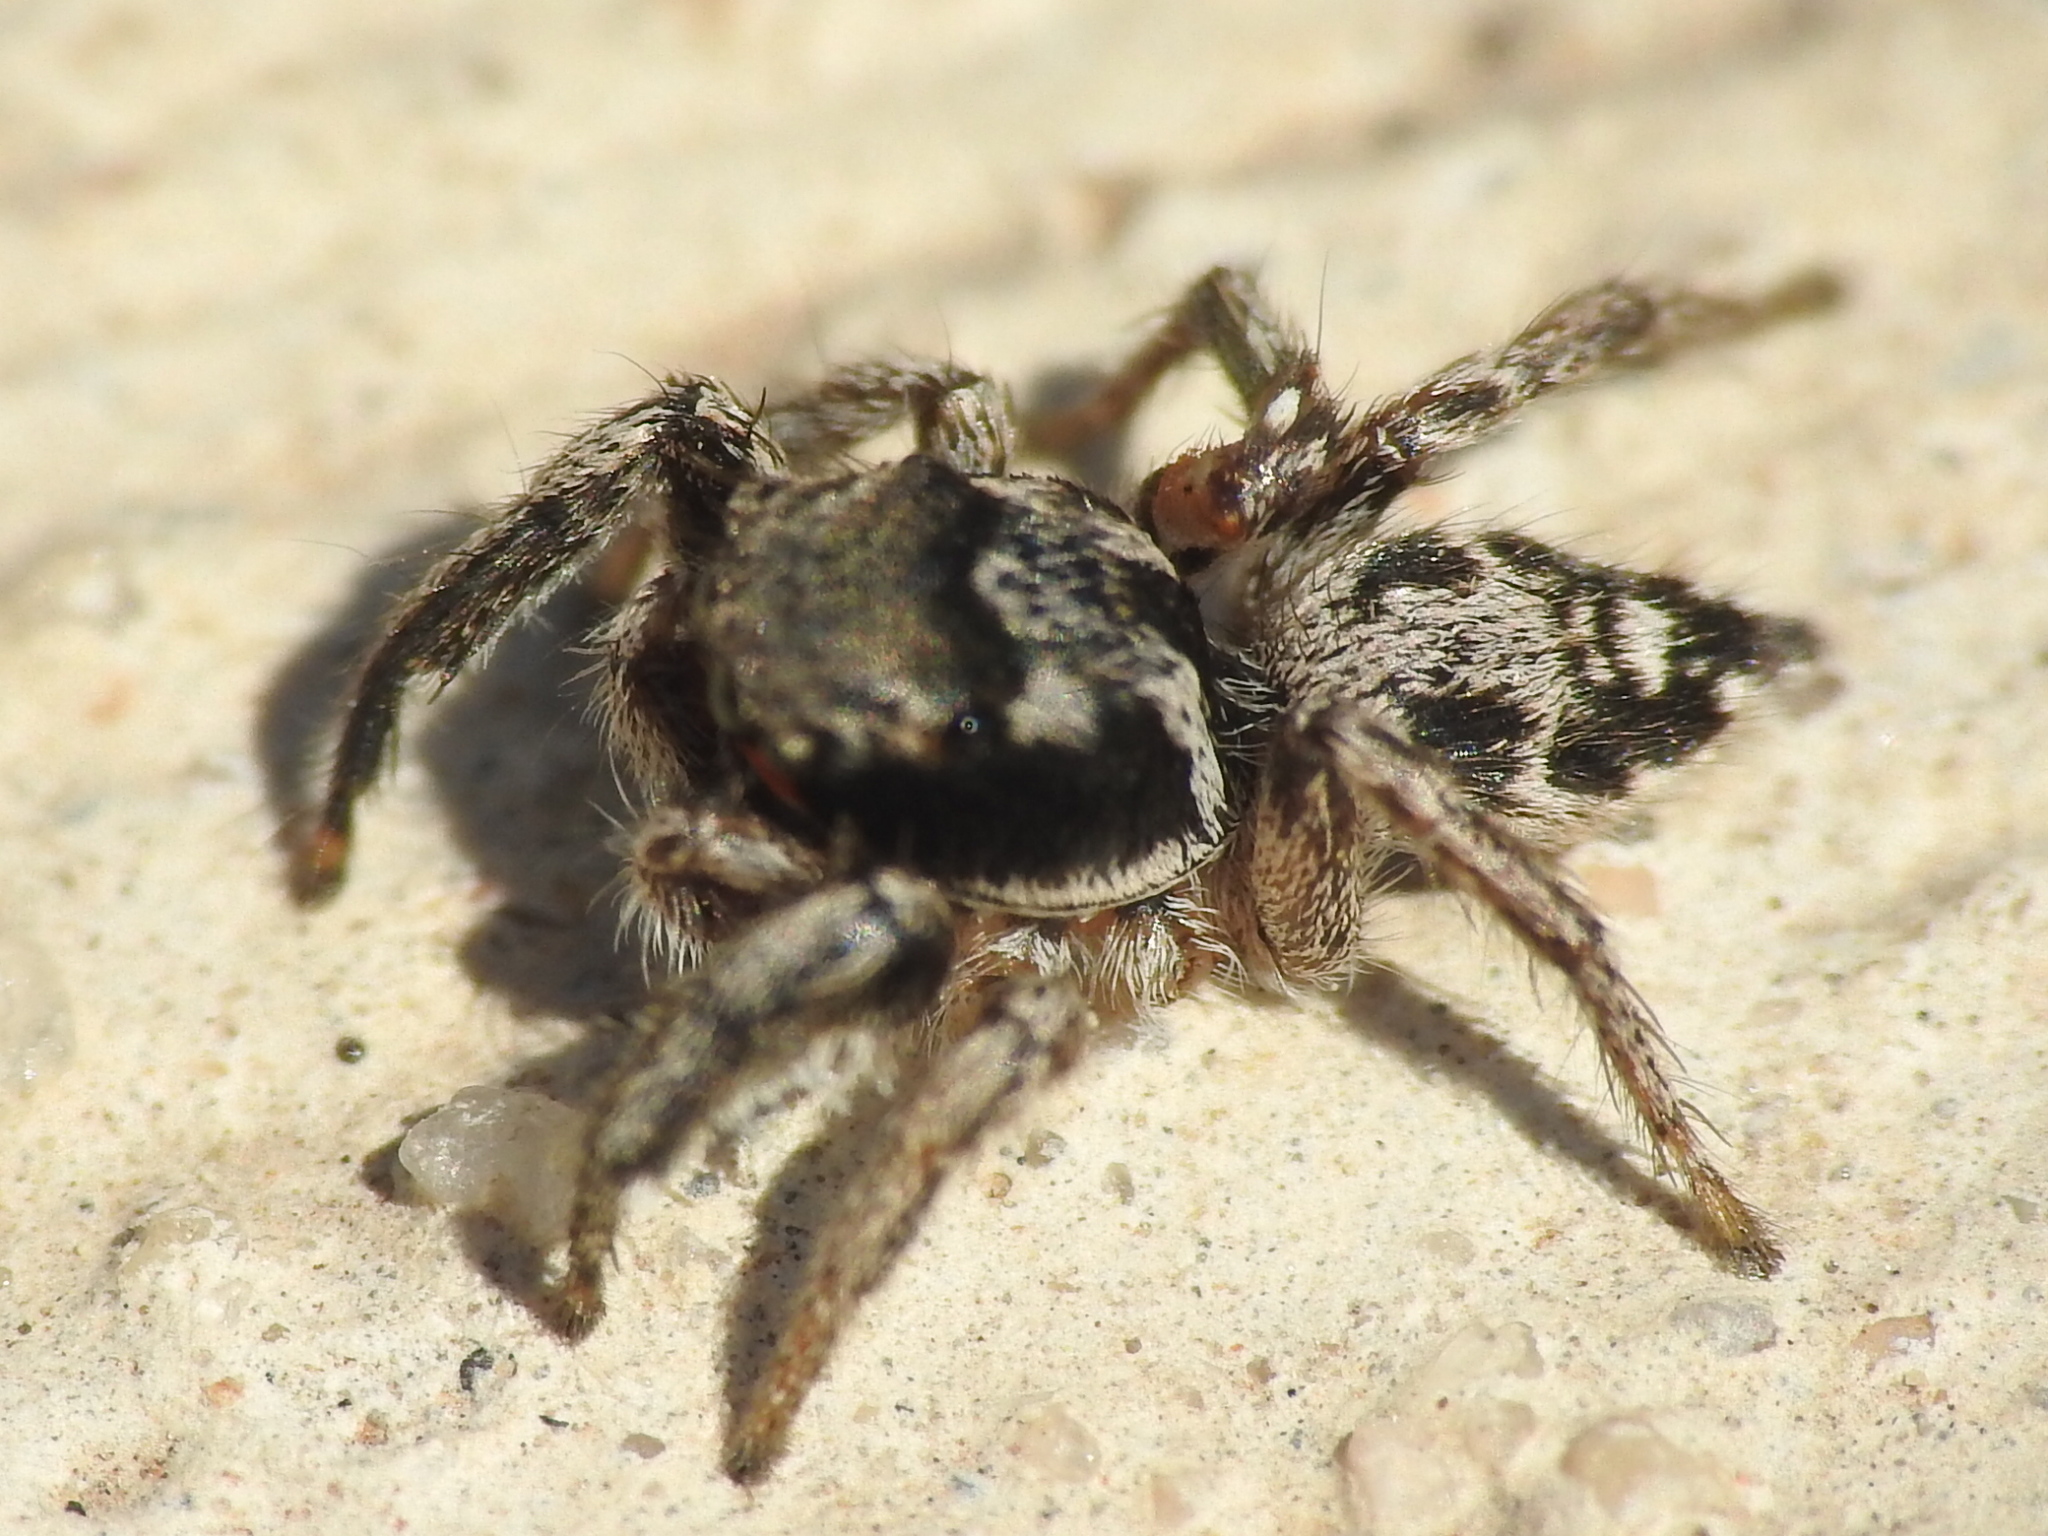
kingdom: Animalia
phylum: Arthropoda
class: Arachnida
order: Araneae
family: Salticidae
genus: Habronattus
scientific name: Habronattus coecatus
